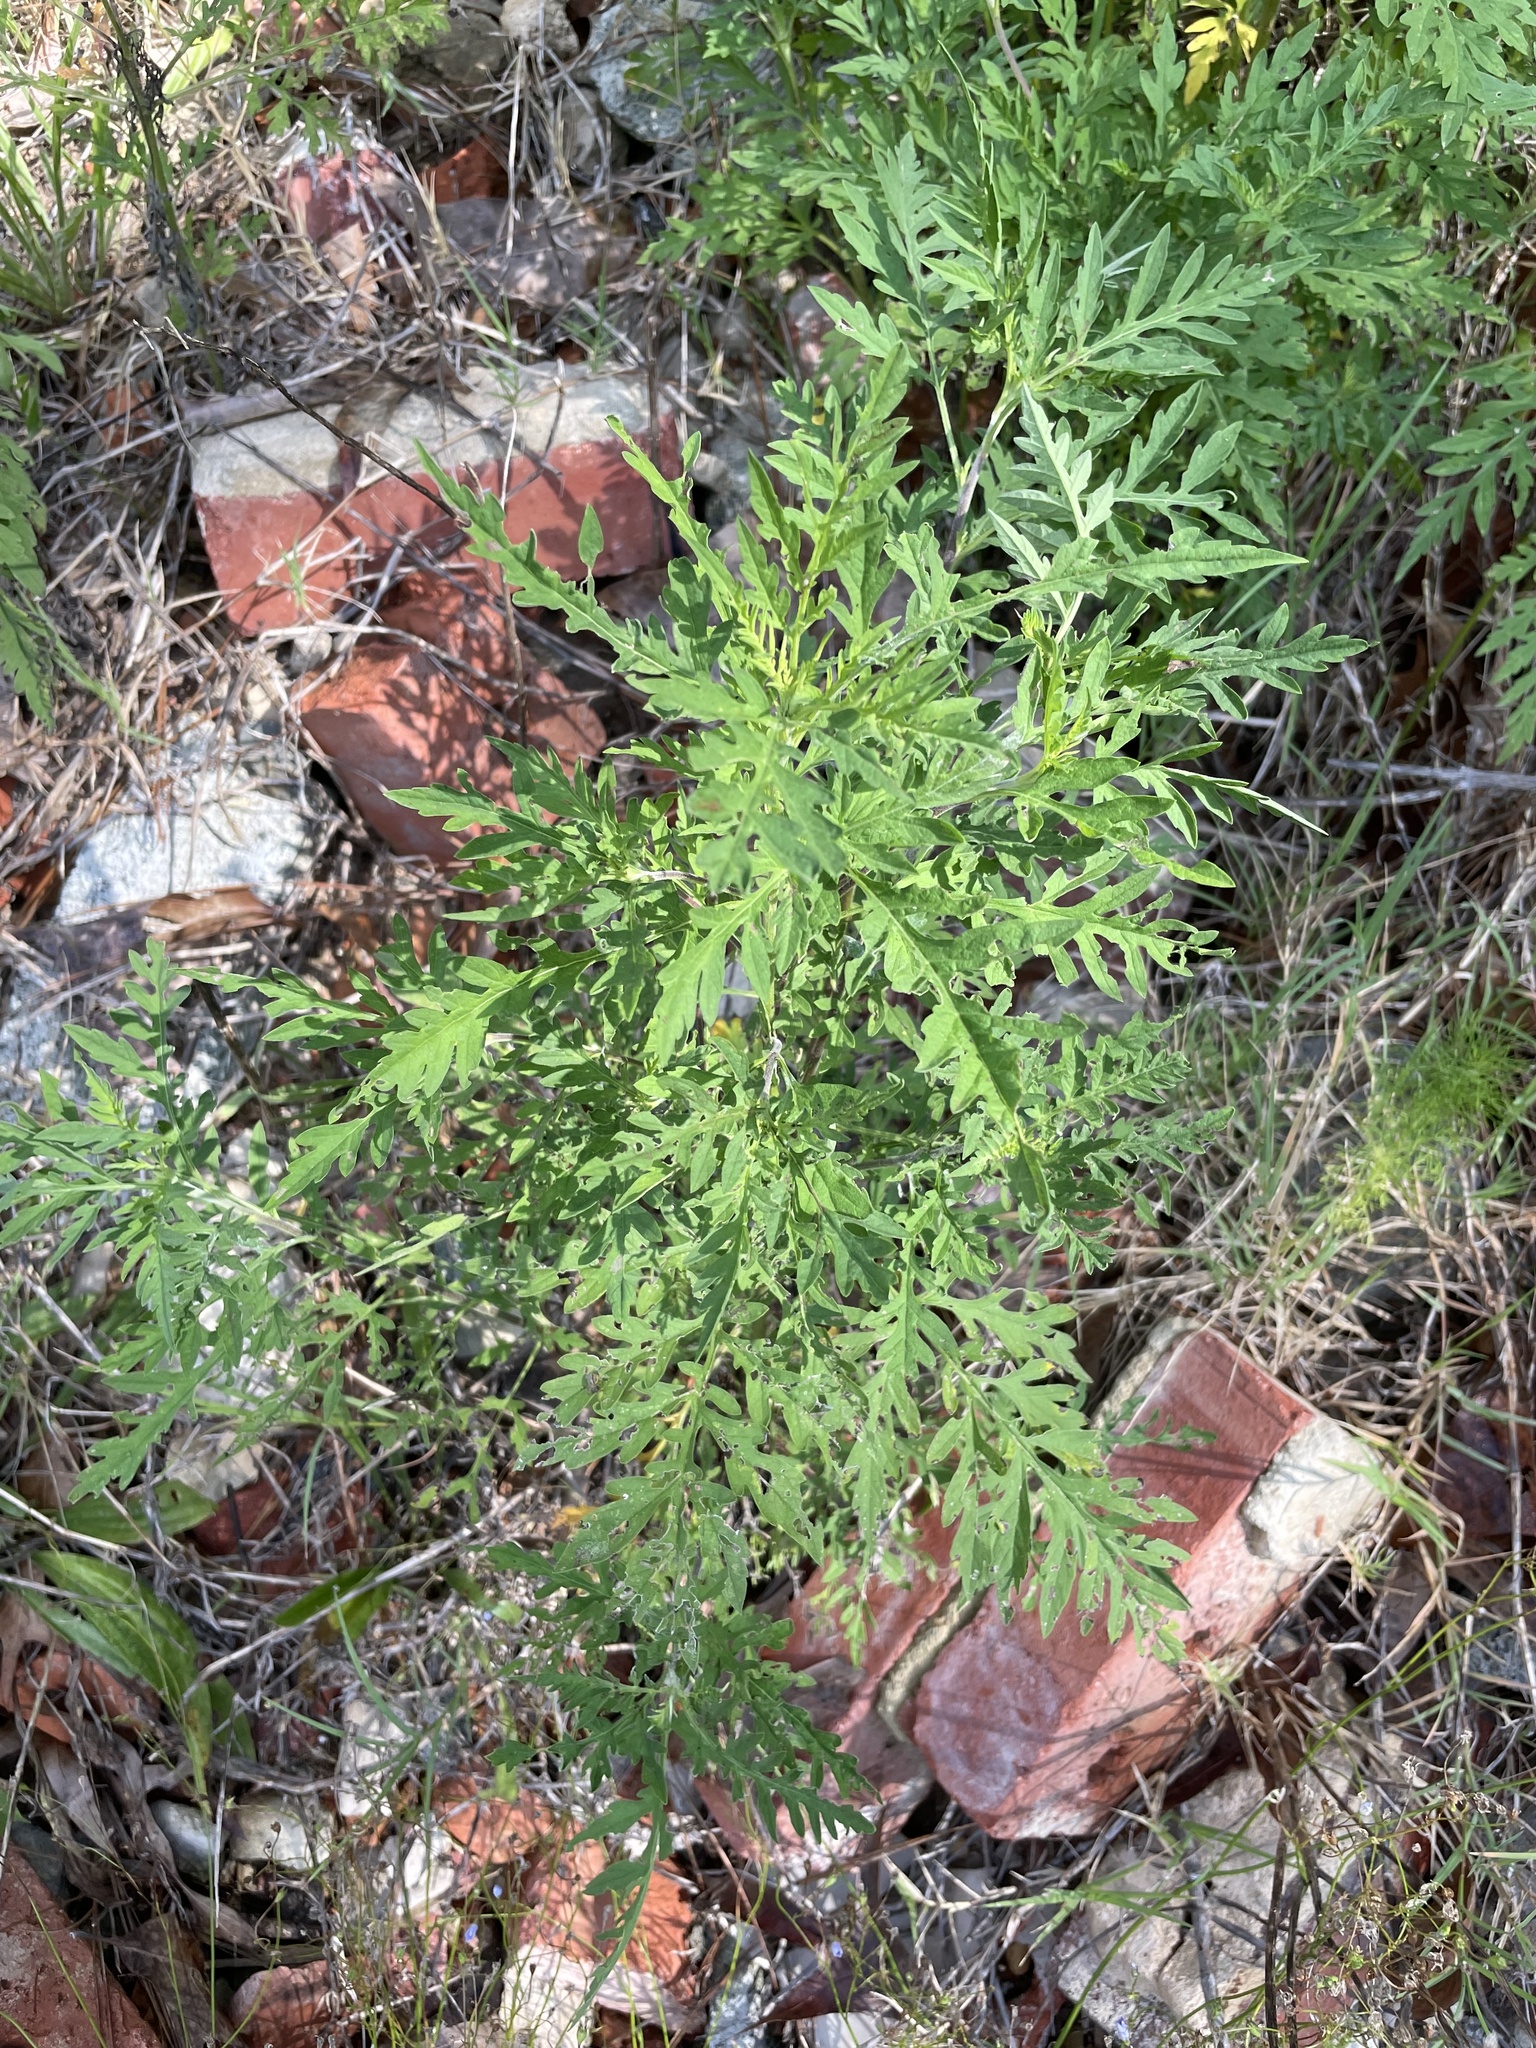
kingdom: Plantae
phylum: Tracheophyta
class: Magnoliopsida
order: Asterales
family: Asteraceae
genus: Ambrosia
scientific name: Ambrosia artemisiifolia
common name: Annual ragweed
